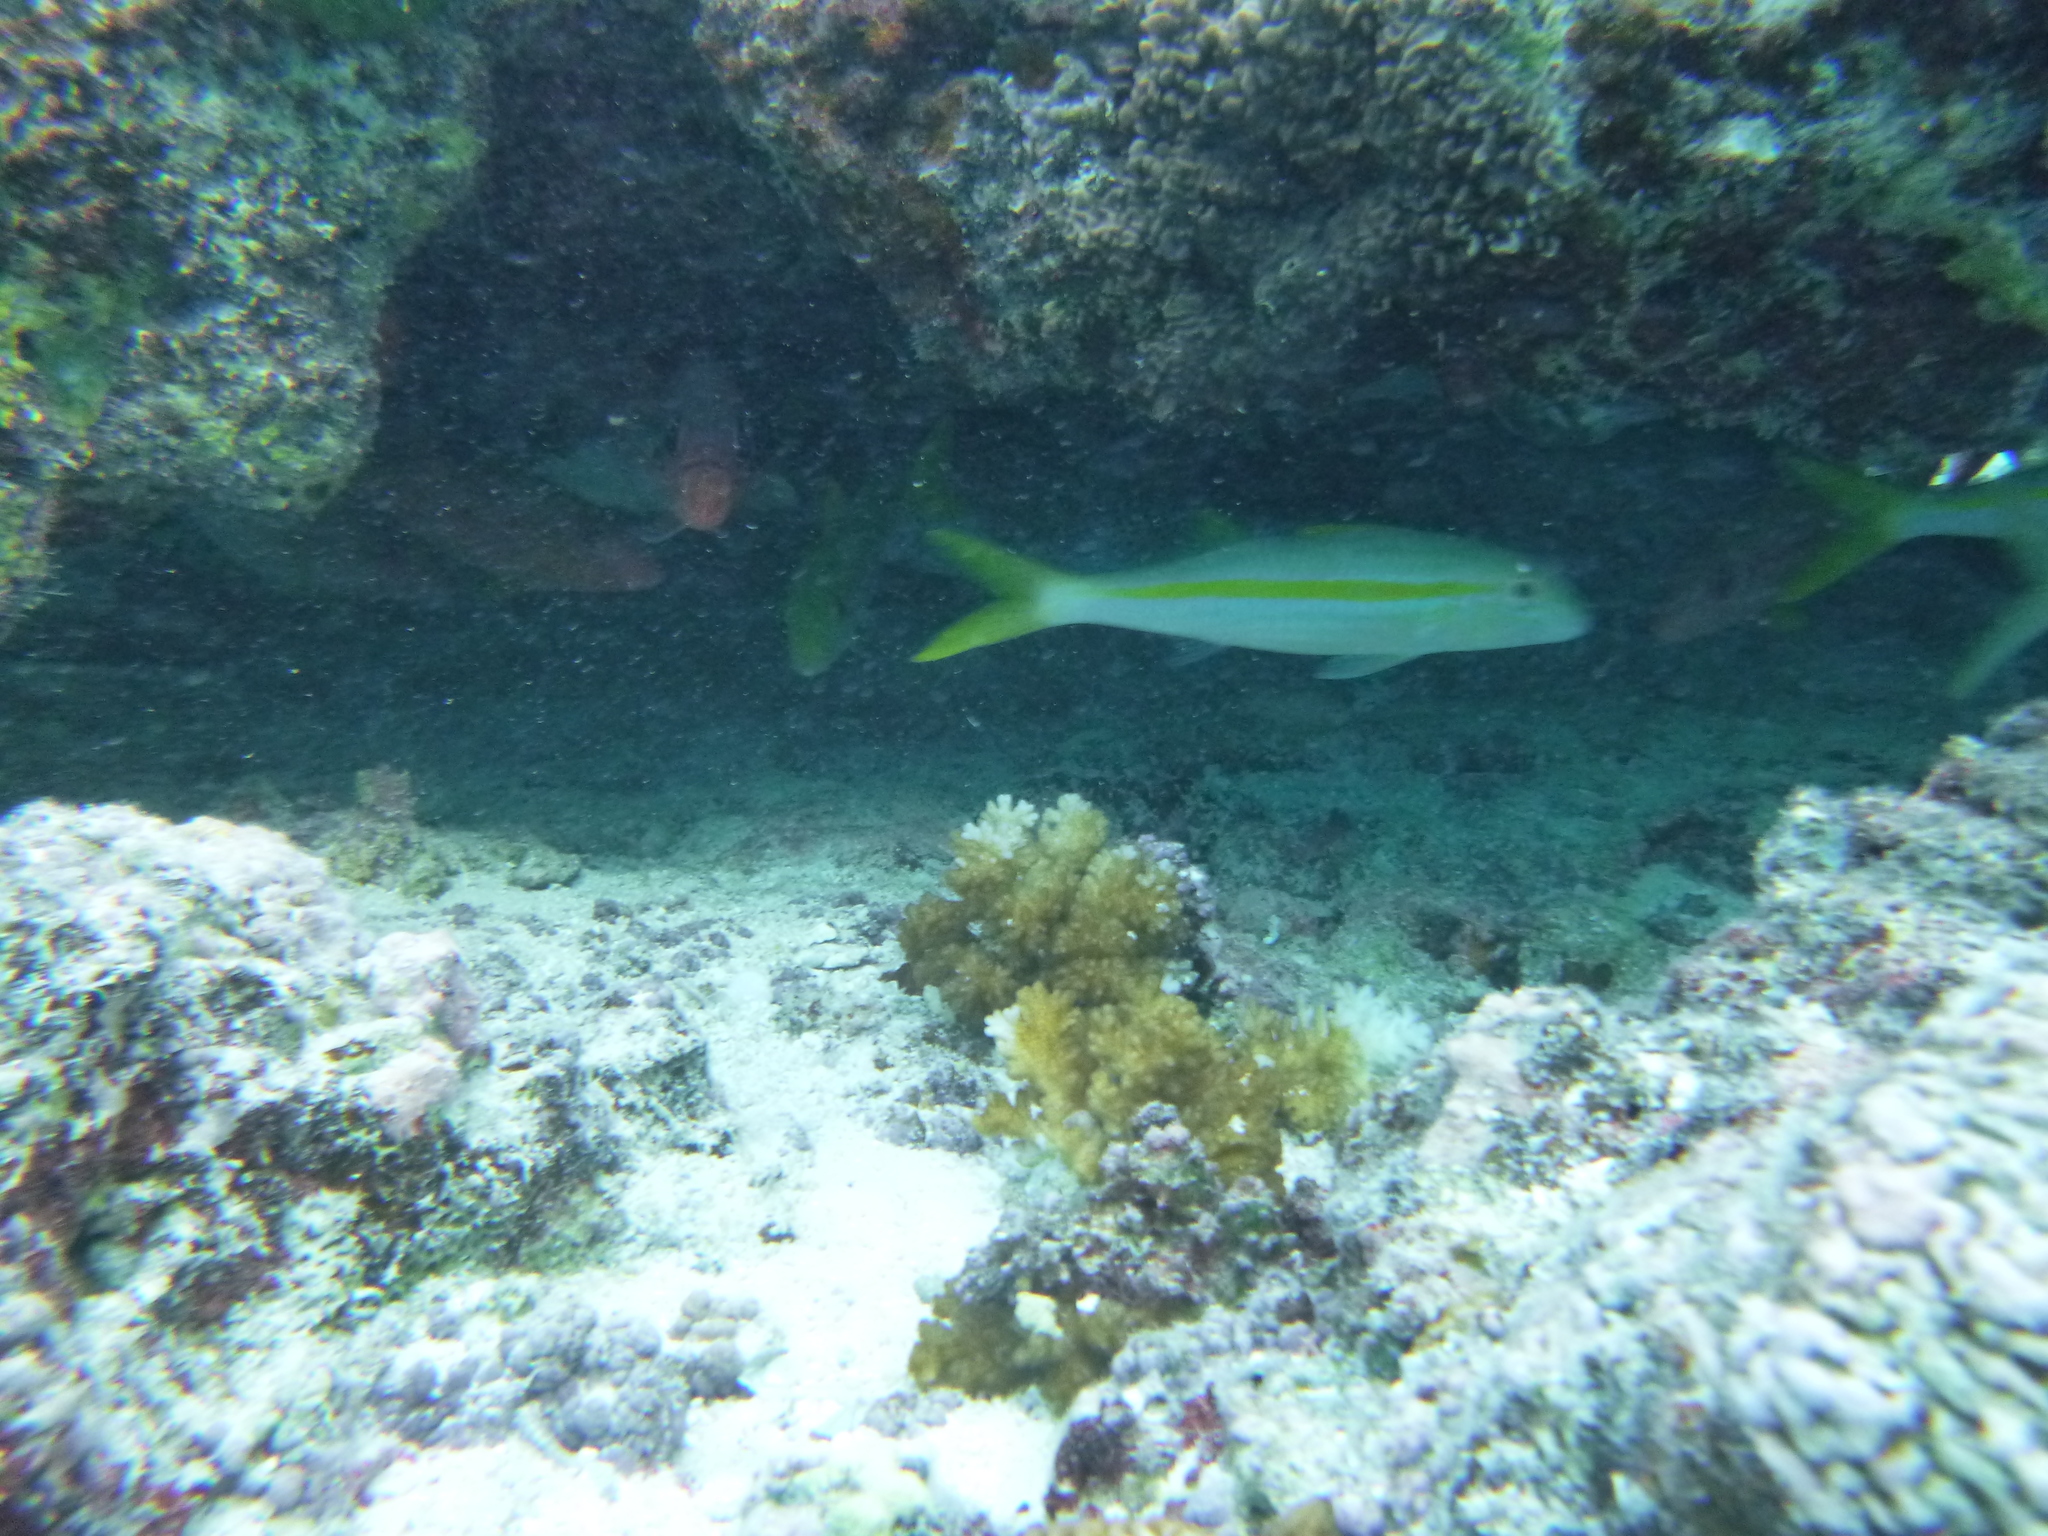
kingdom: Animalia
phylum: Chordata
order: Perciformes
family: Mullidae
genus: Mulloidichthys
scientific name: Mulloidichthys vanicolensis
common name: Yellowfin goatfish
